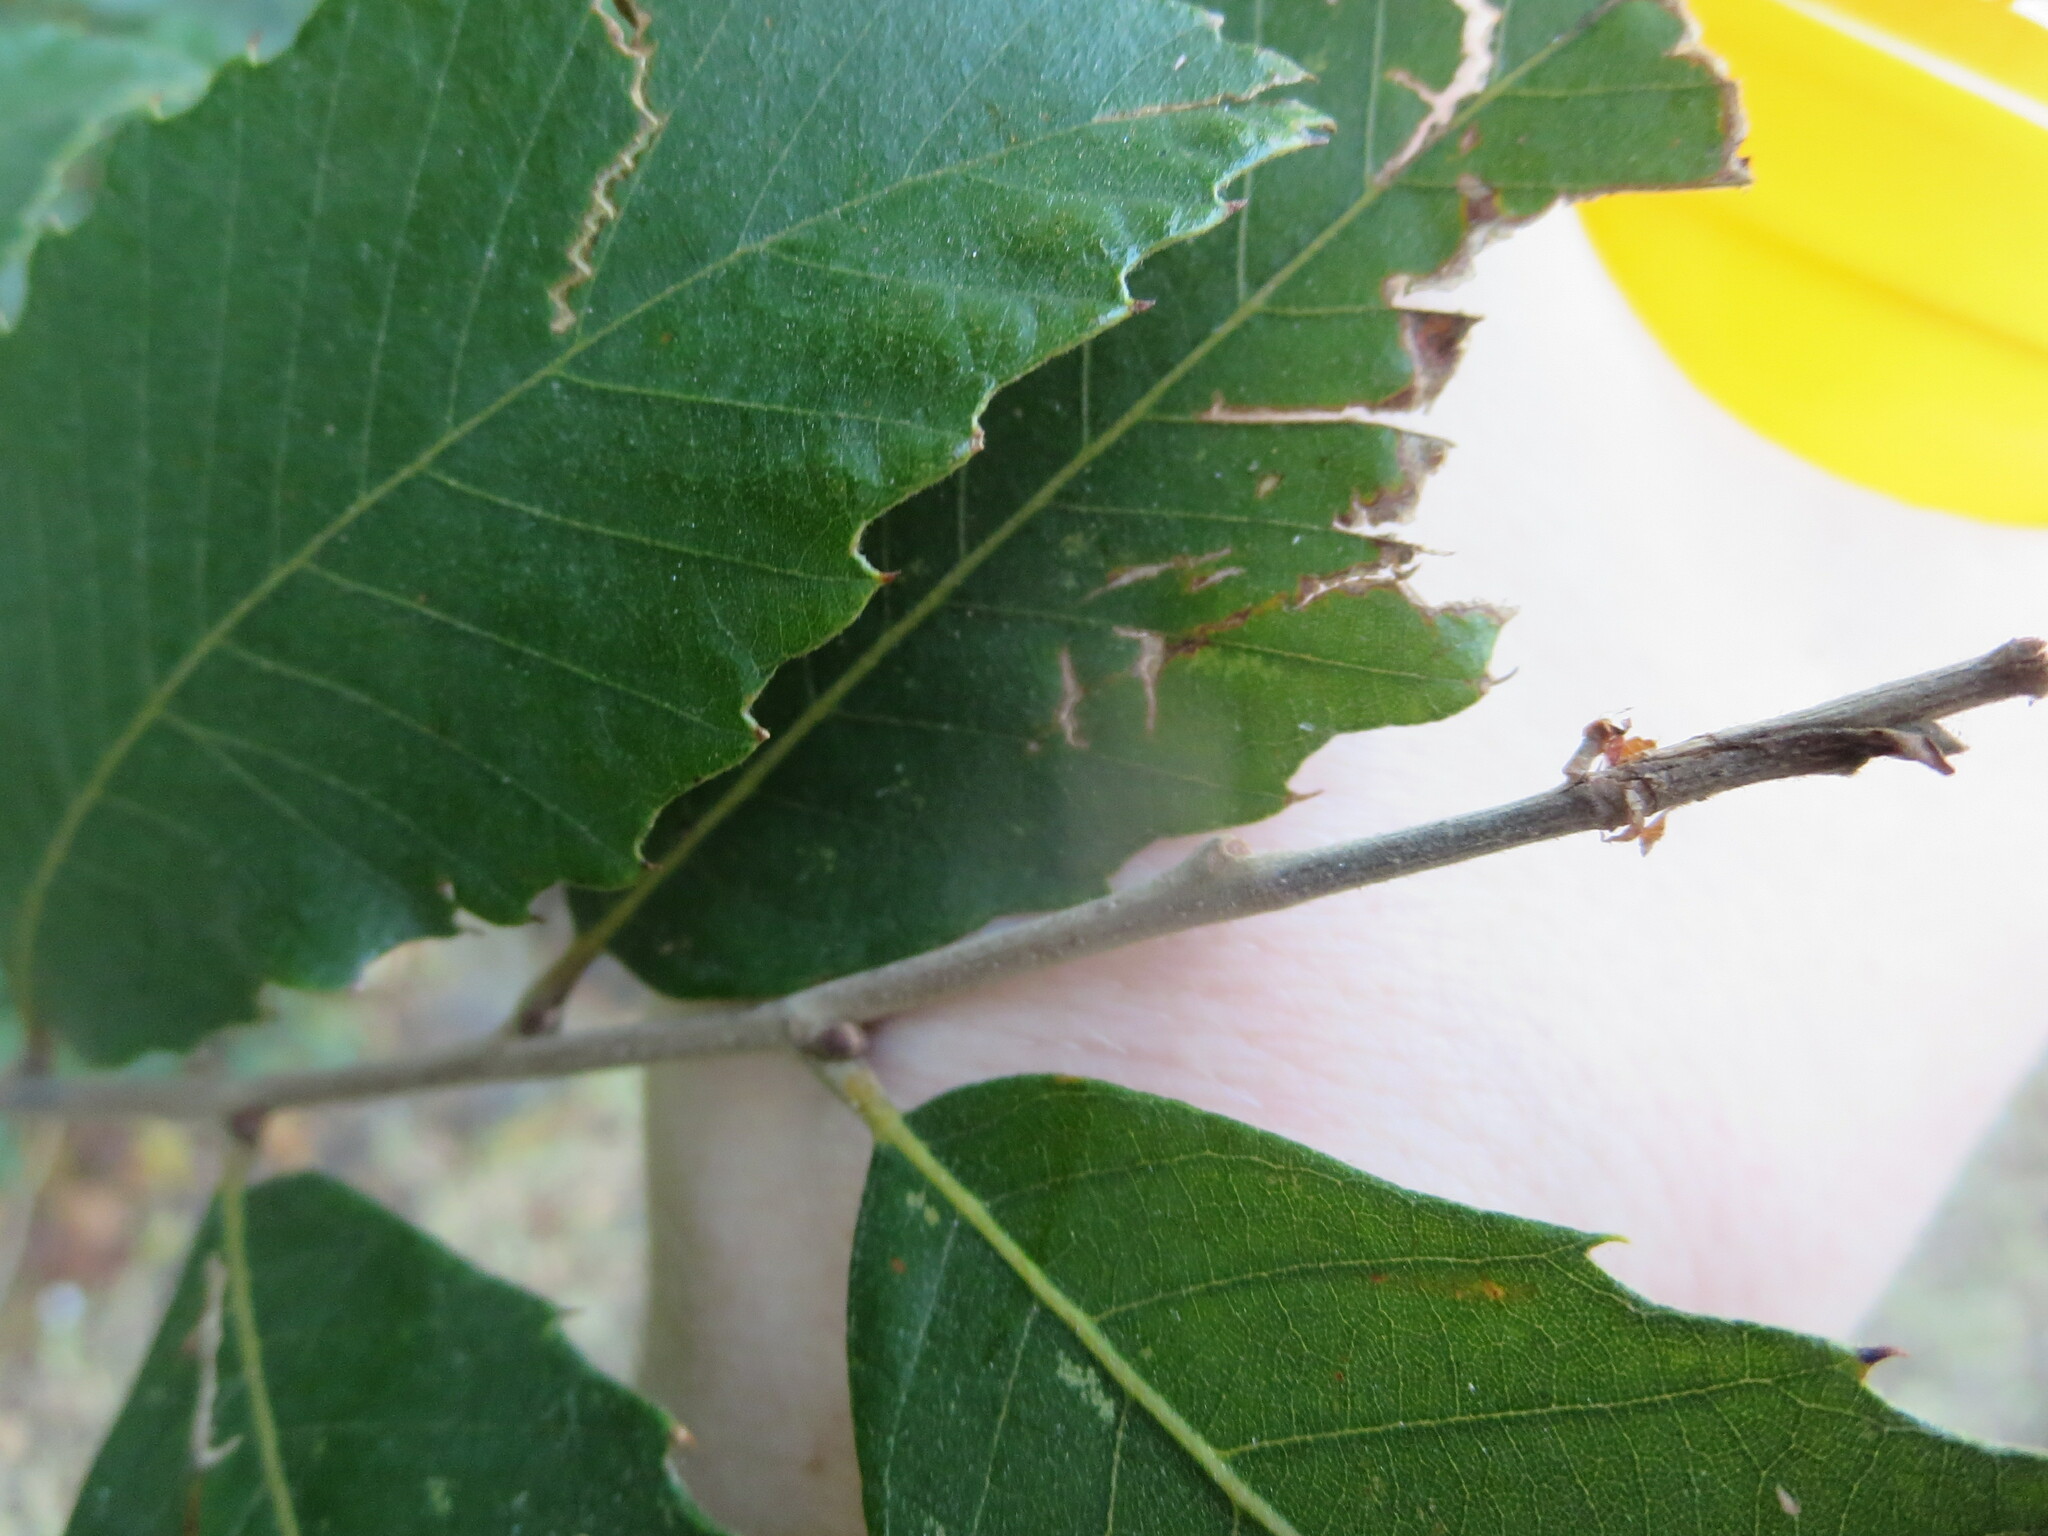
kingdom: Plantae
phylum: Tracheophyta
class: Magnoliopsida
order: Fagales
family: Fagaceae
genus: Castanea
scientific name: Castanea pumila
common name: Chinkapin
